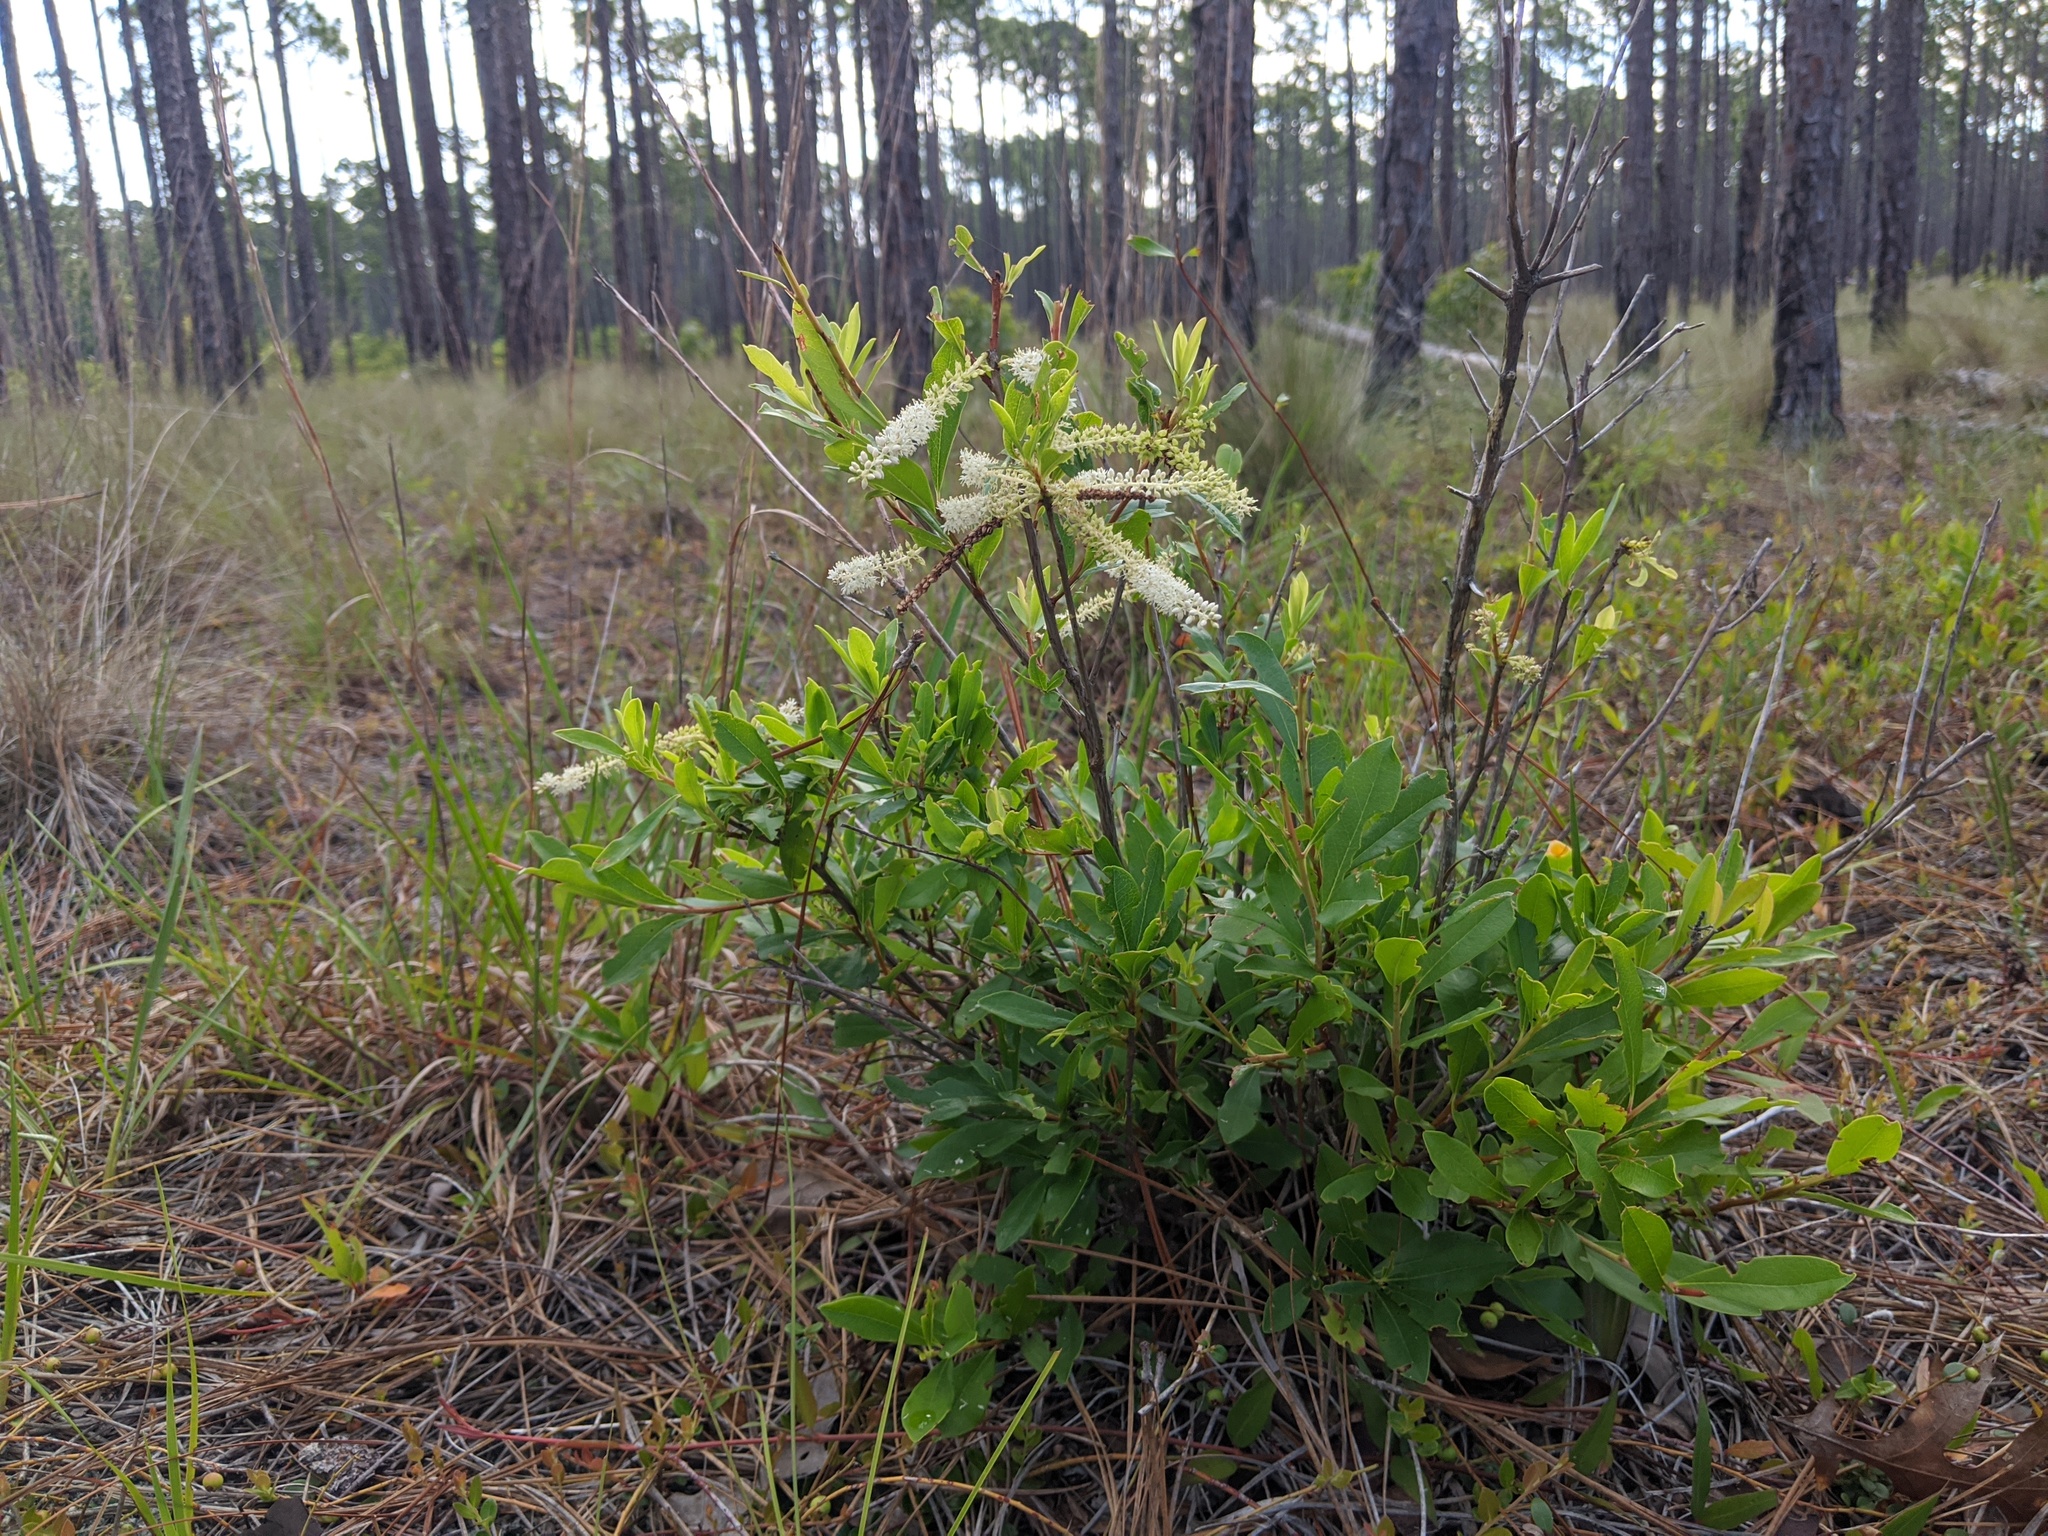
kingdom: Plantae
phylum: Tracheophyta
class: Magnoliopsida
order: Ericales
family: Cyrillaceae
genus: Cyrilla
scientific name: Cyrilla racemiflora
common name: Black titi
